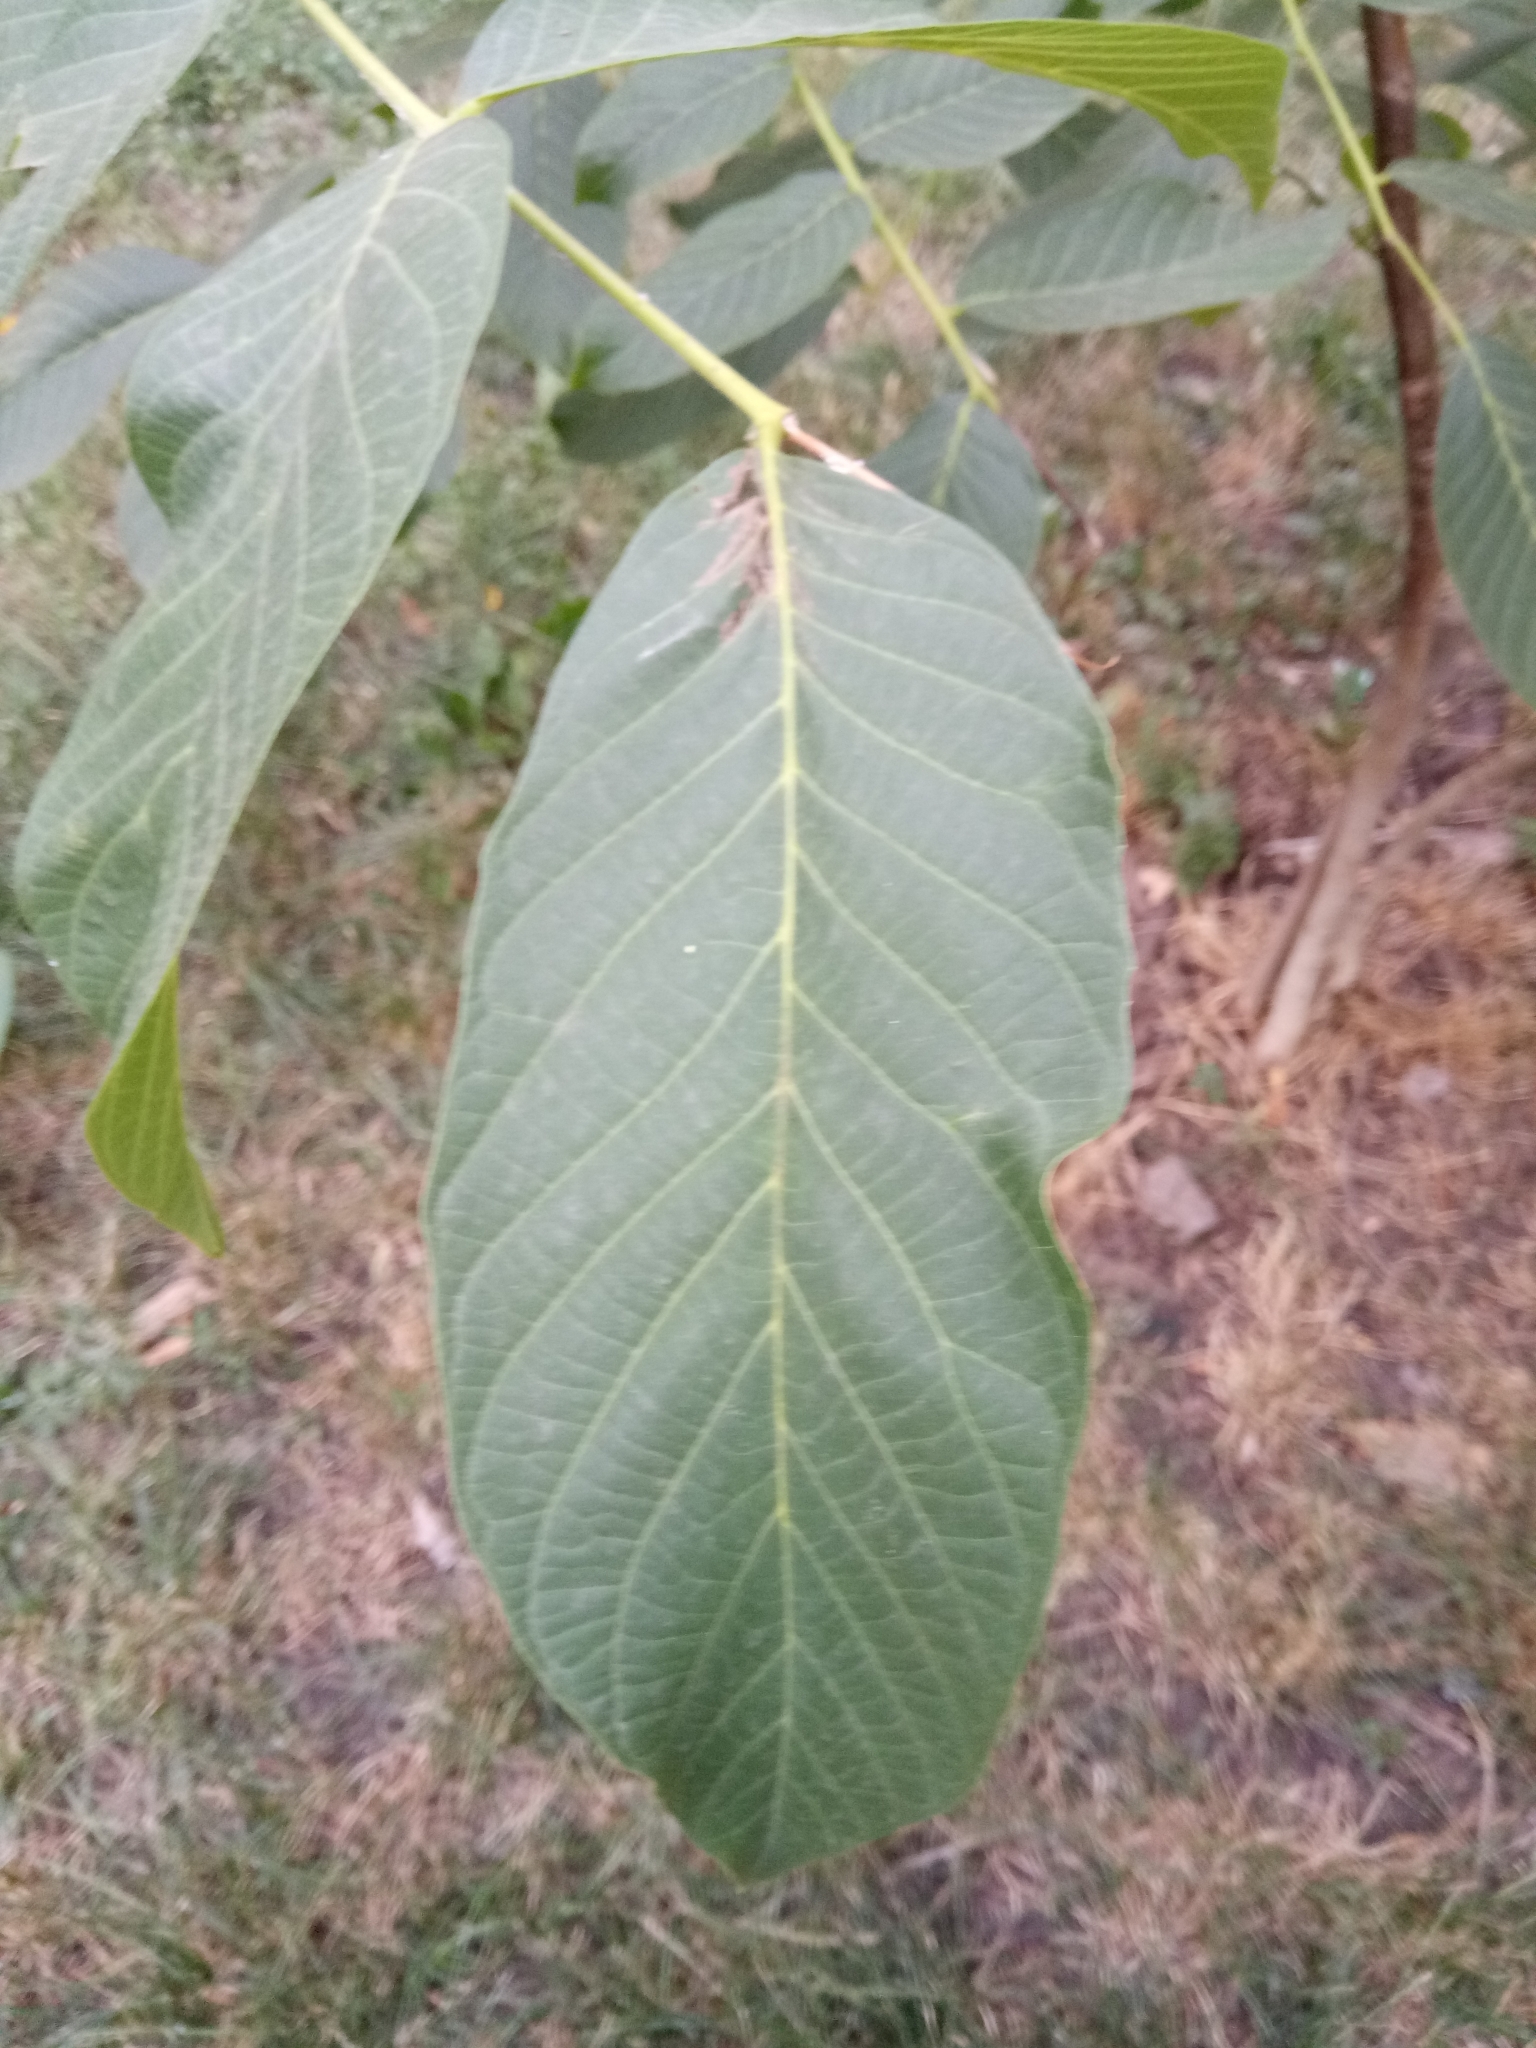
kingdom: Plantae
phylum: Tracheophyta
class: Magnoliopsida
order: Fagales
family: Juglandaceae
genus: Juglans
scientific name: Juglans regia
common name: Walnut
